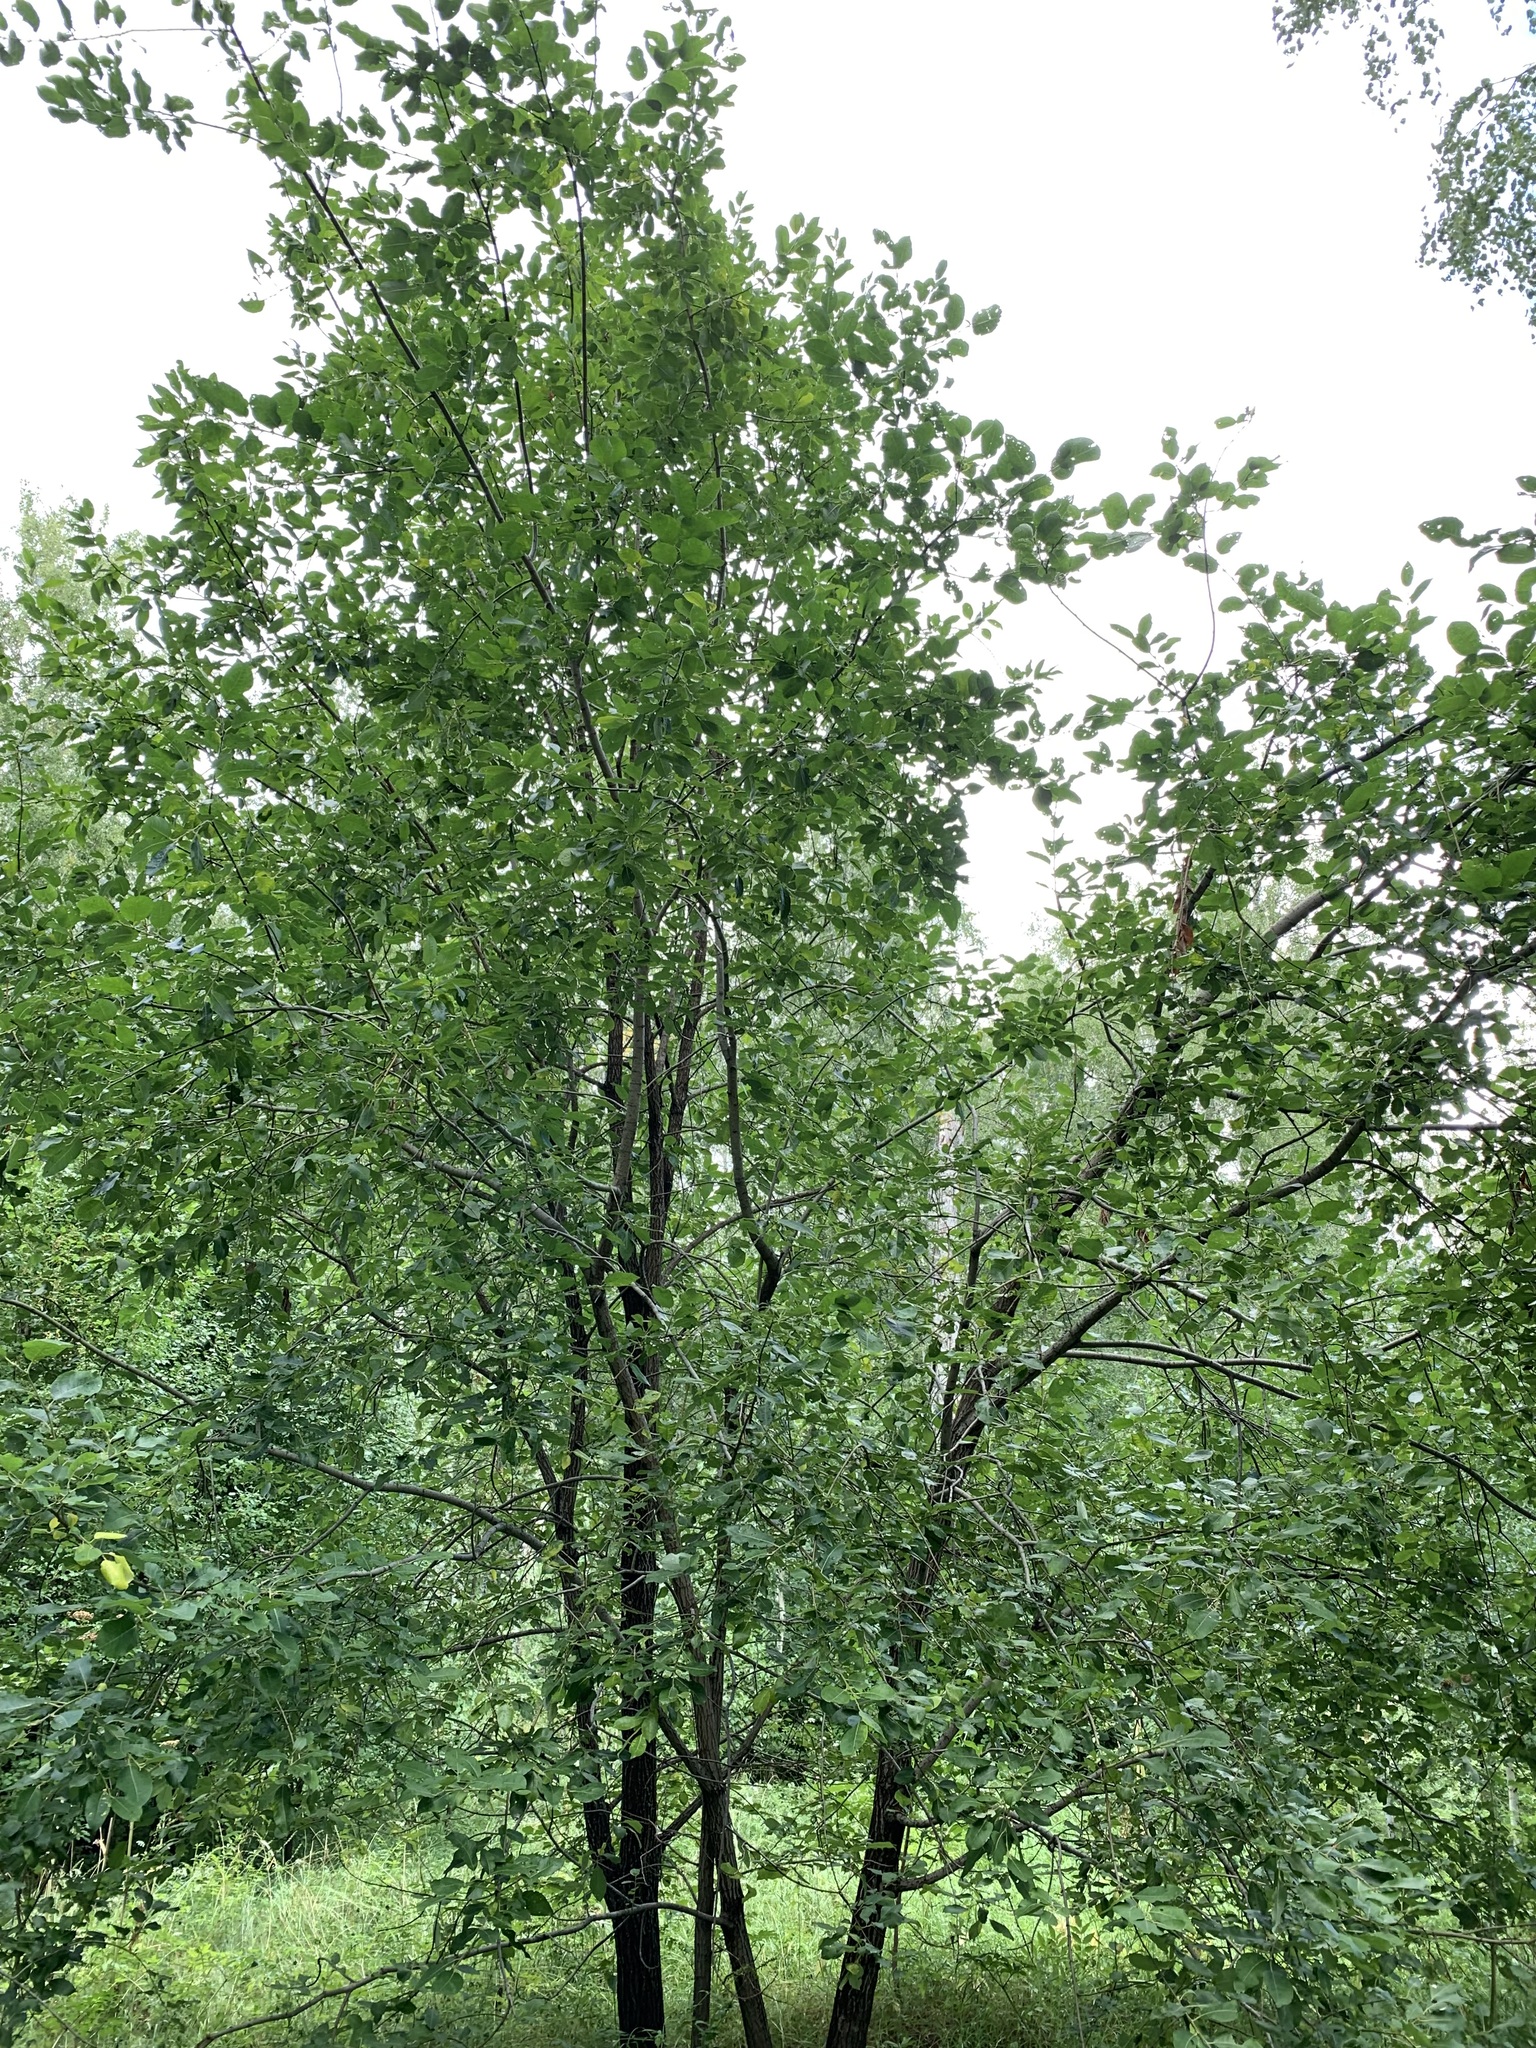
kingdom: Plantae
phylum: Tracheophyta
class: Magnoliopsida
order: Malpighiales
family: Salicaceae
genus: Salix
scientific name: Salix caprea
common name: Goat willow
